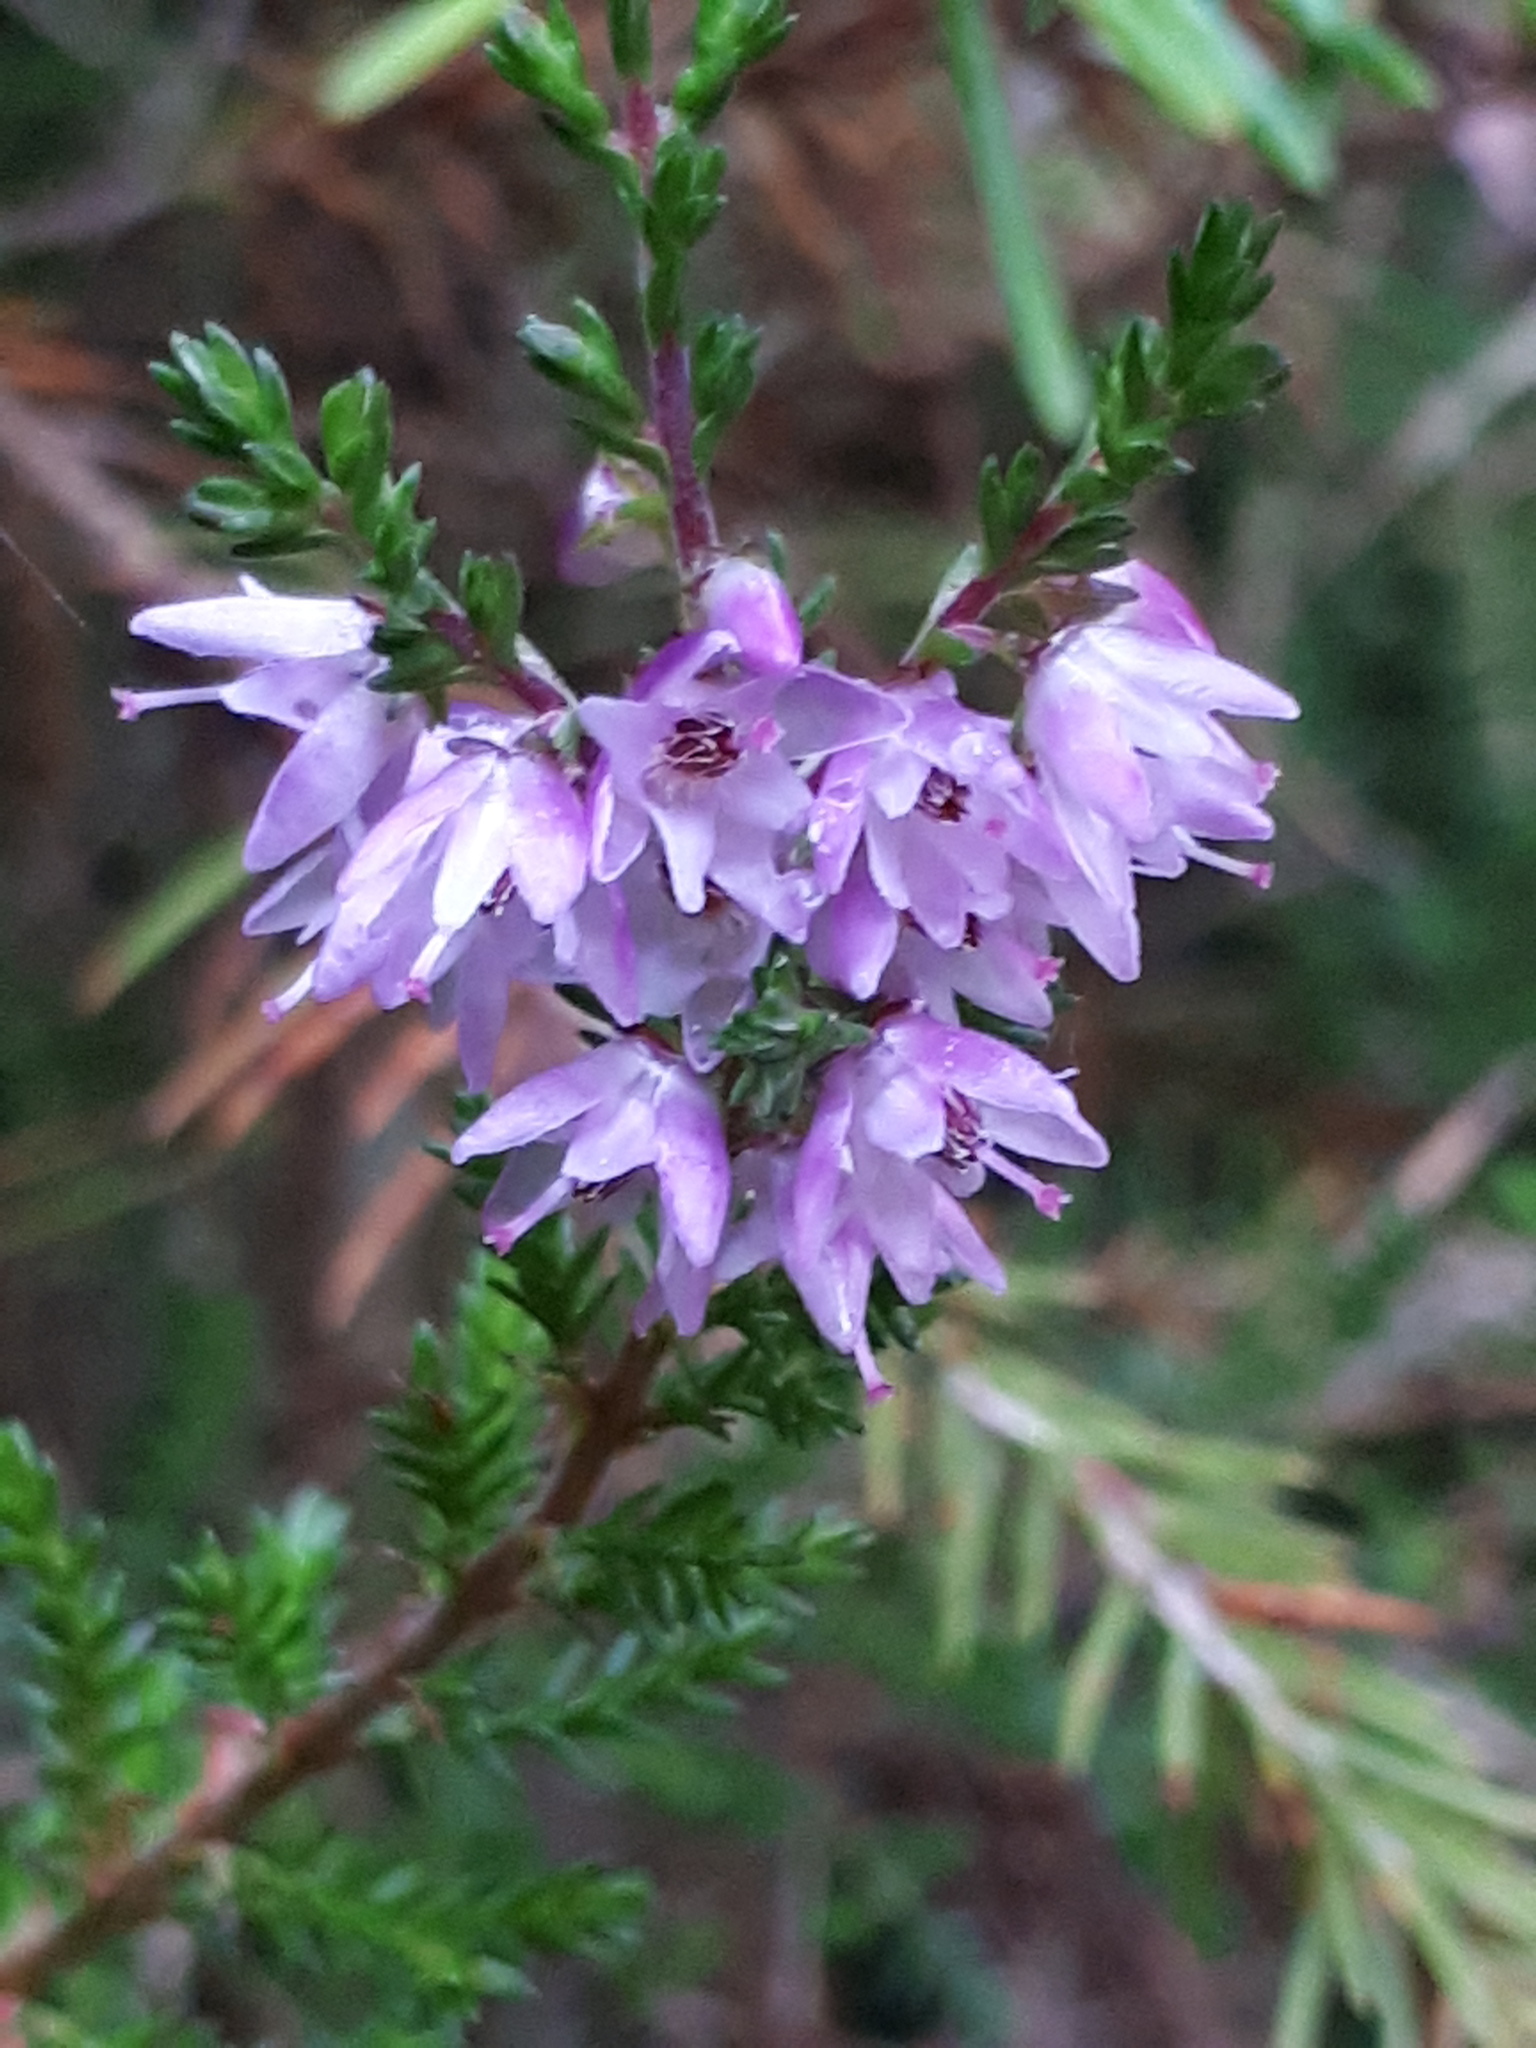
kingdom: Plantae
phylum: Tracheophyta
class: Magnoliopsida
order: Ericales
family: Ericaceae
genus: Calluna
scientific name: Calluna vulgaris
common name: Heather
